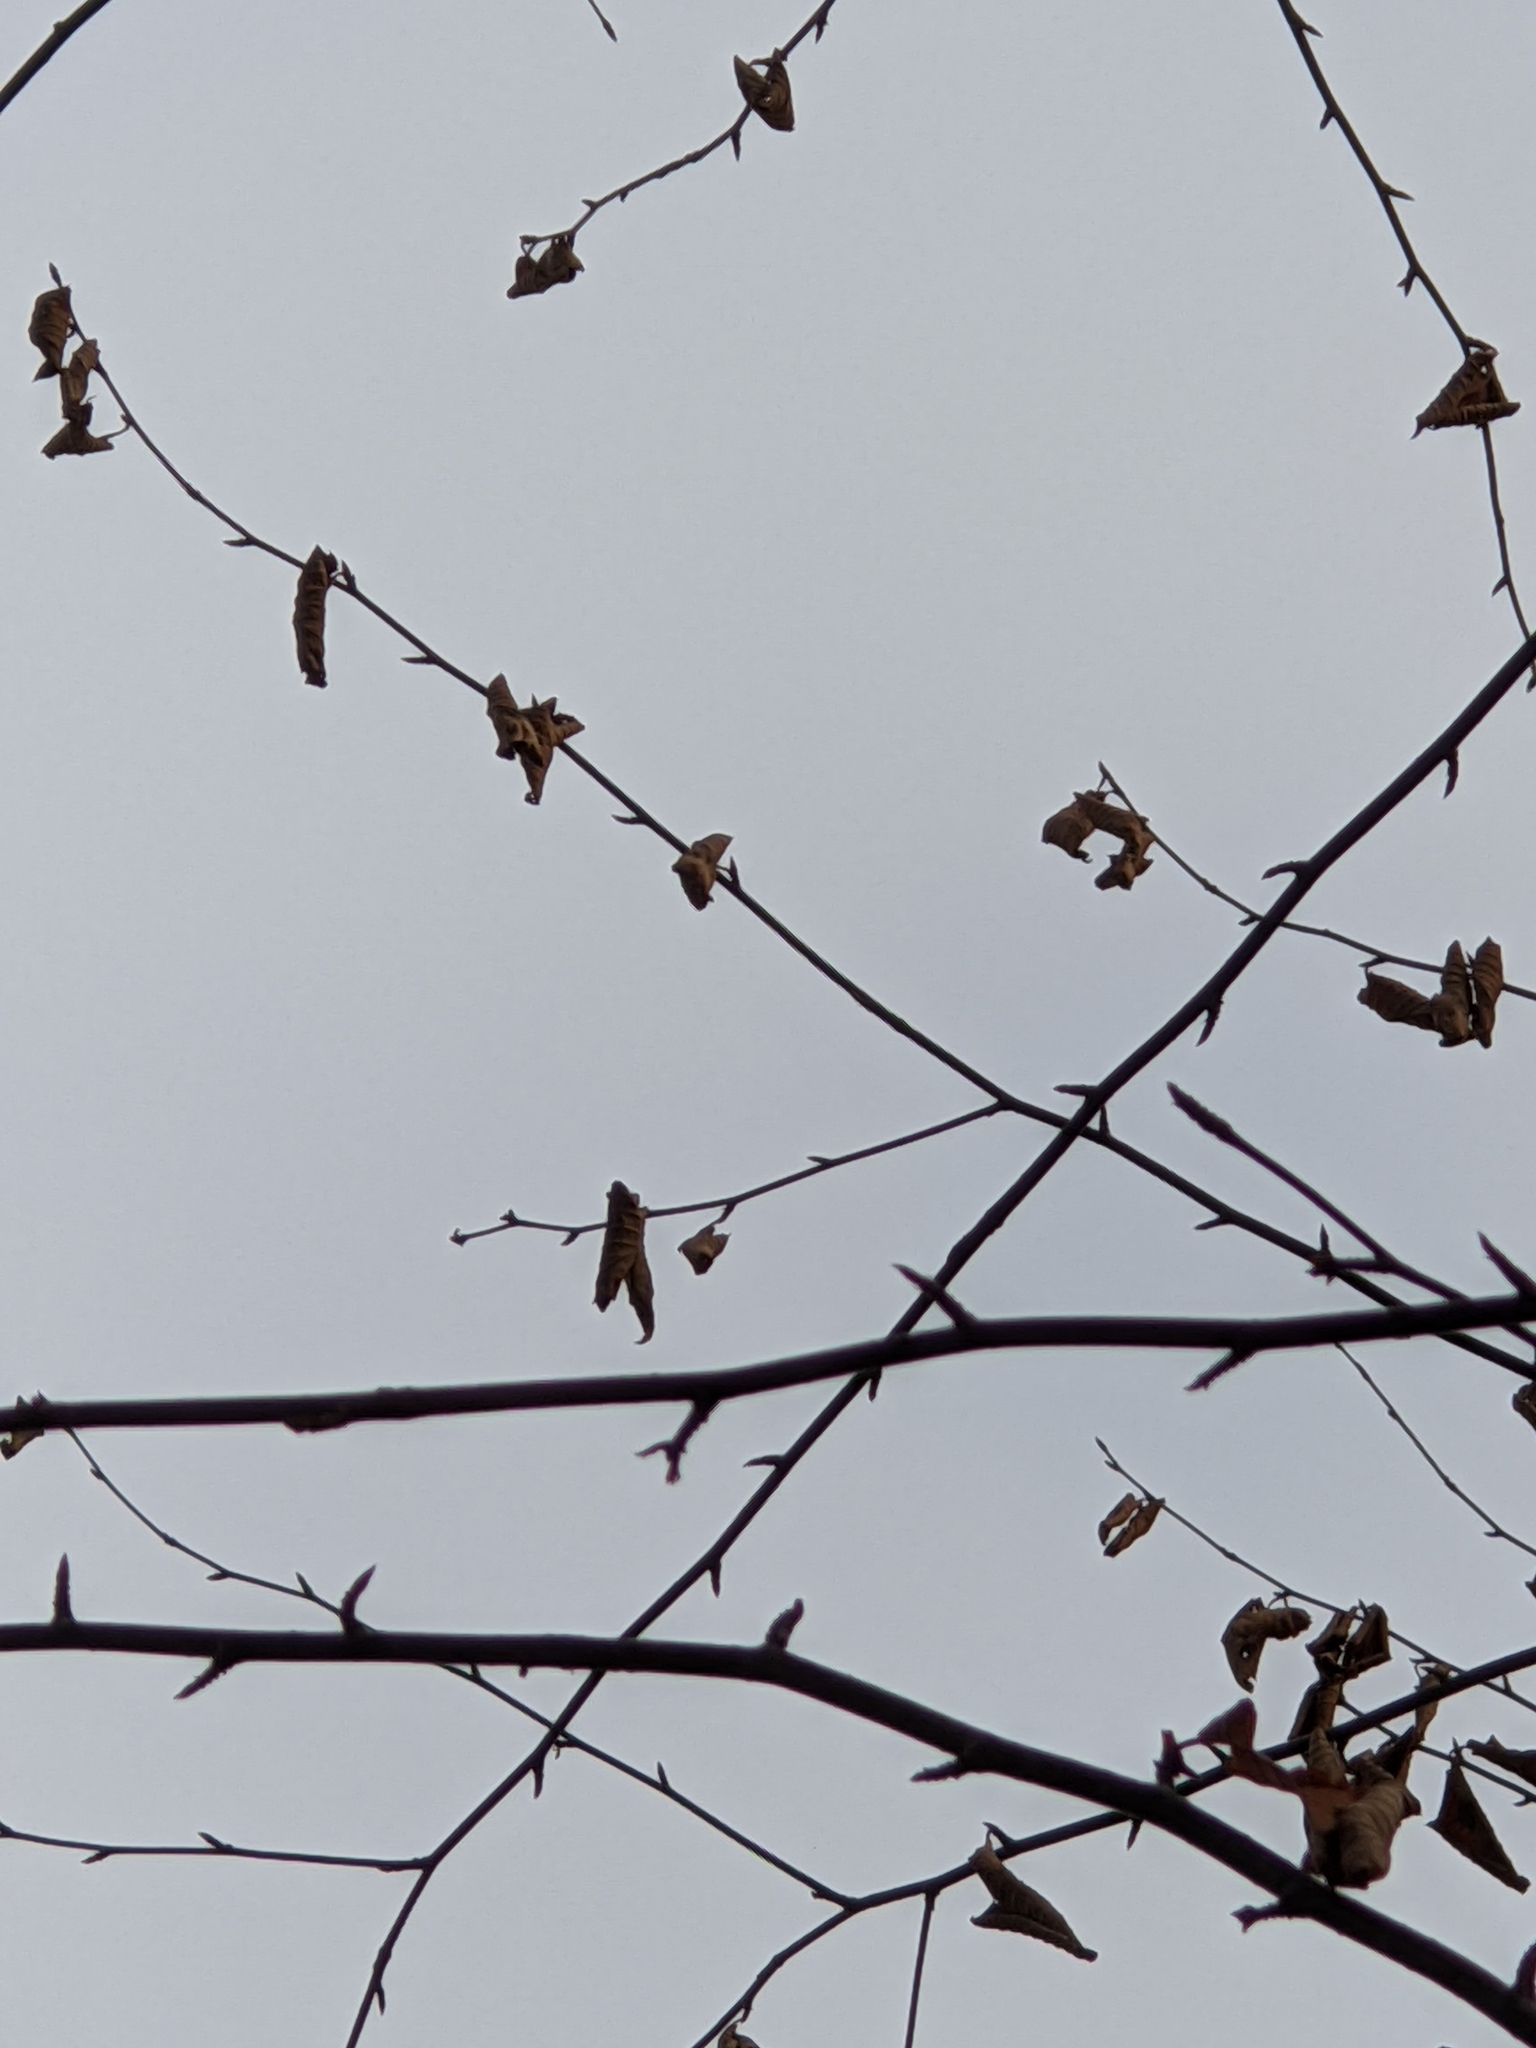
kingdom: Plantae
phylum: Tracheophyta
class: Magnoliopsida
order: Fagales
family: Betulaceae
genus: Betula
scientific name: Betula alleghaniensis
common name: Yellow birch
